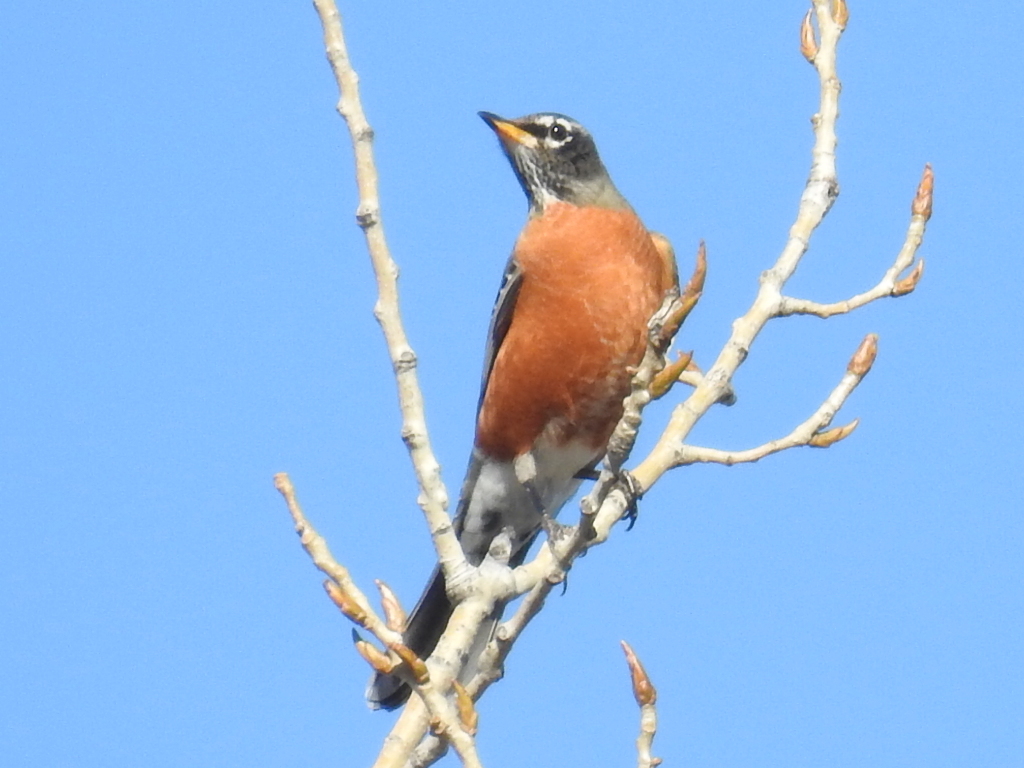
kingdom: Animalia
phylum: Chordata
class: Aves
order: Passeriformes
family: Turdidae
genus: Turdus
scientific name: Turdus migratorius
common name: American robin
